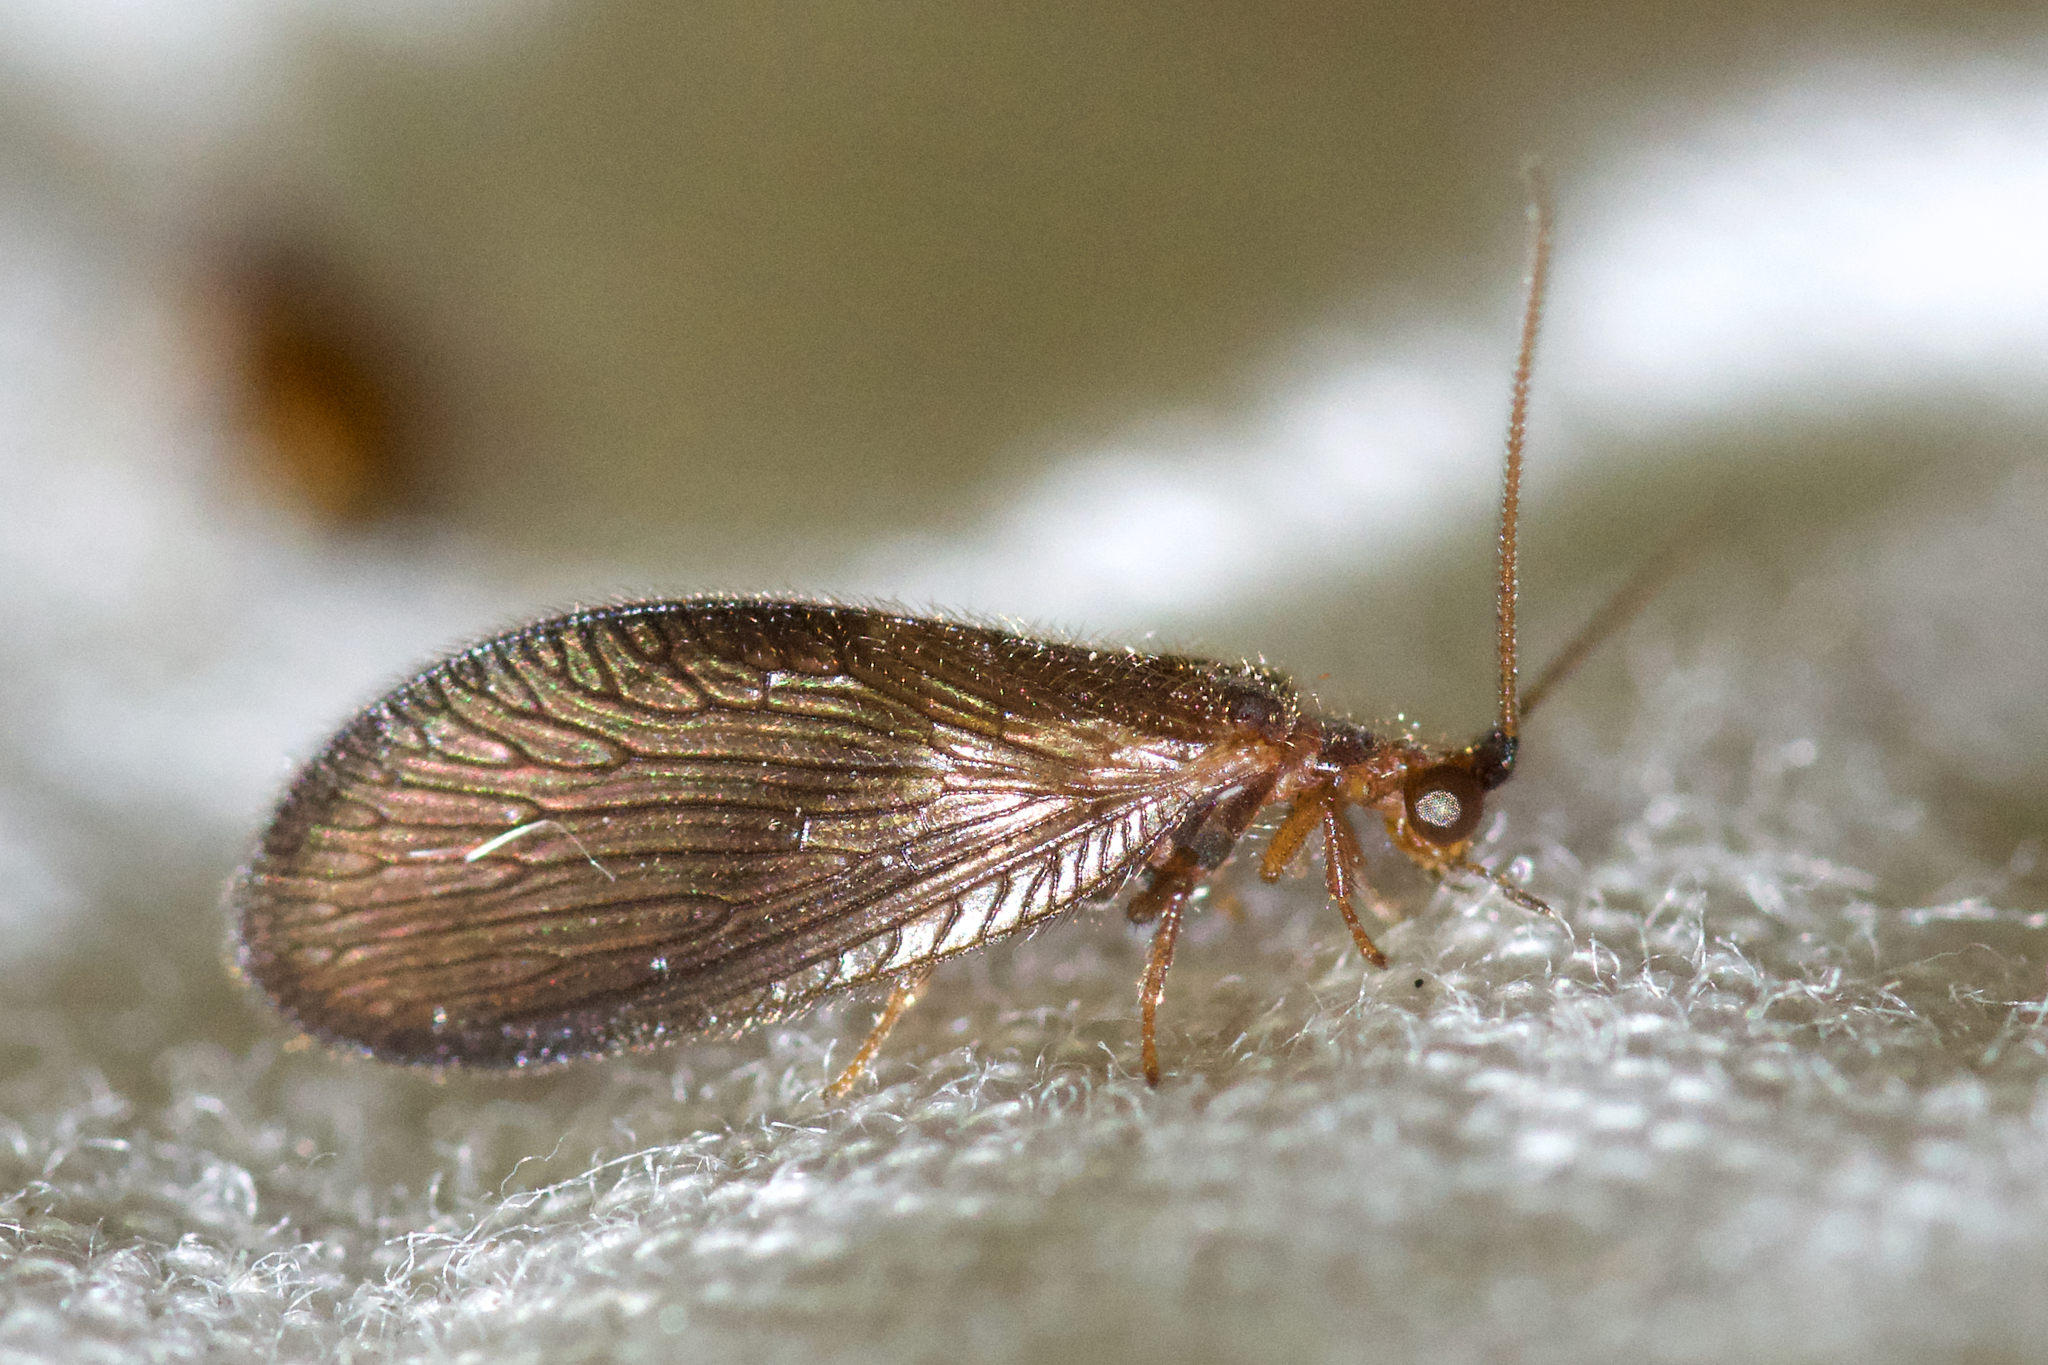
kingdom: Animalia
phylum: Arthropoda
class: Insecta
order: Neuroptera
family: Sisyridae
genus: Sisyra
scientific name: Sisyra vicaria
